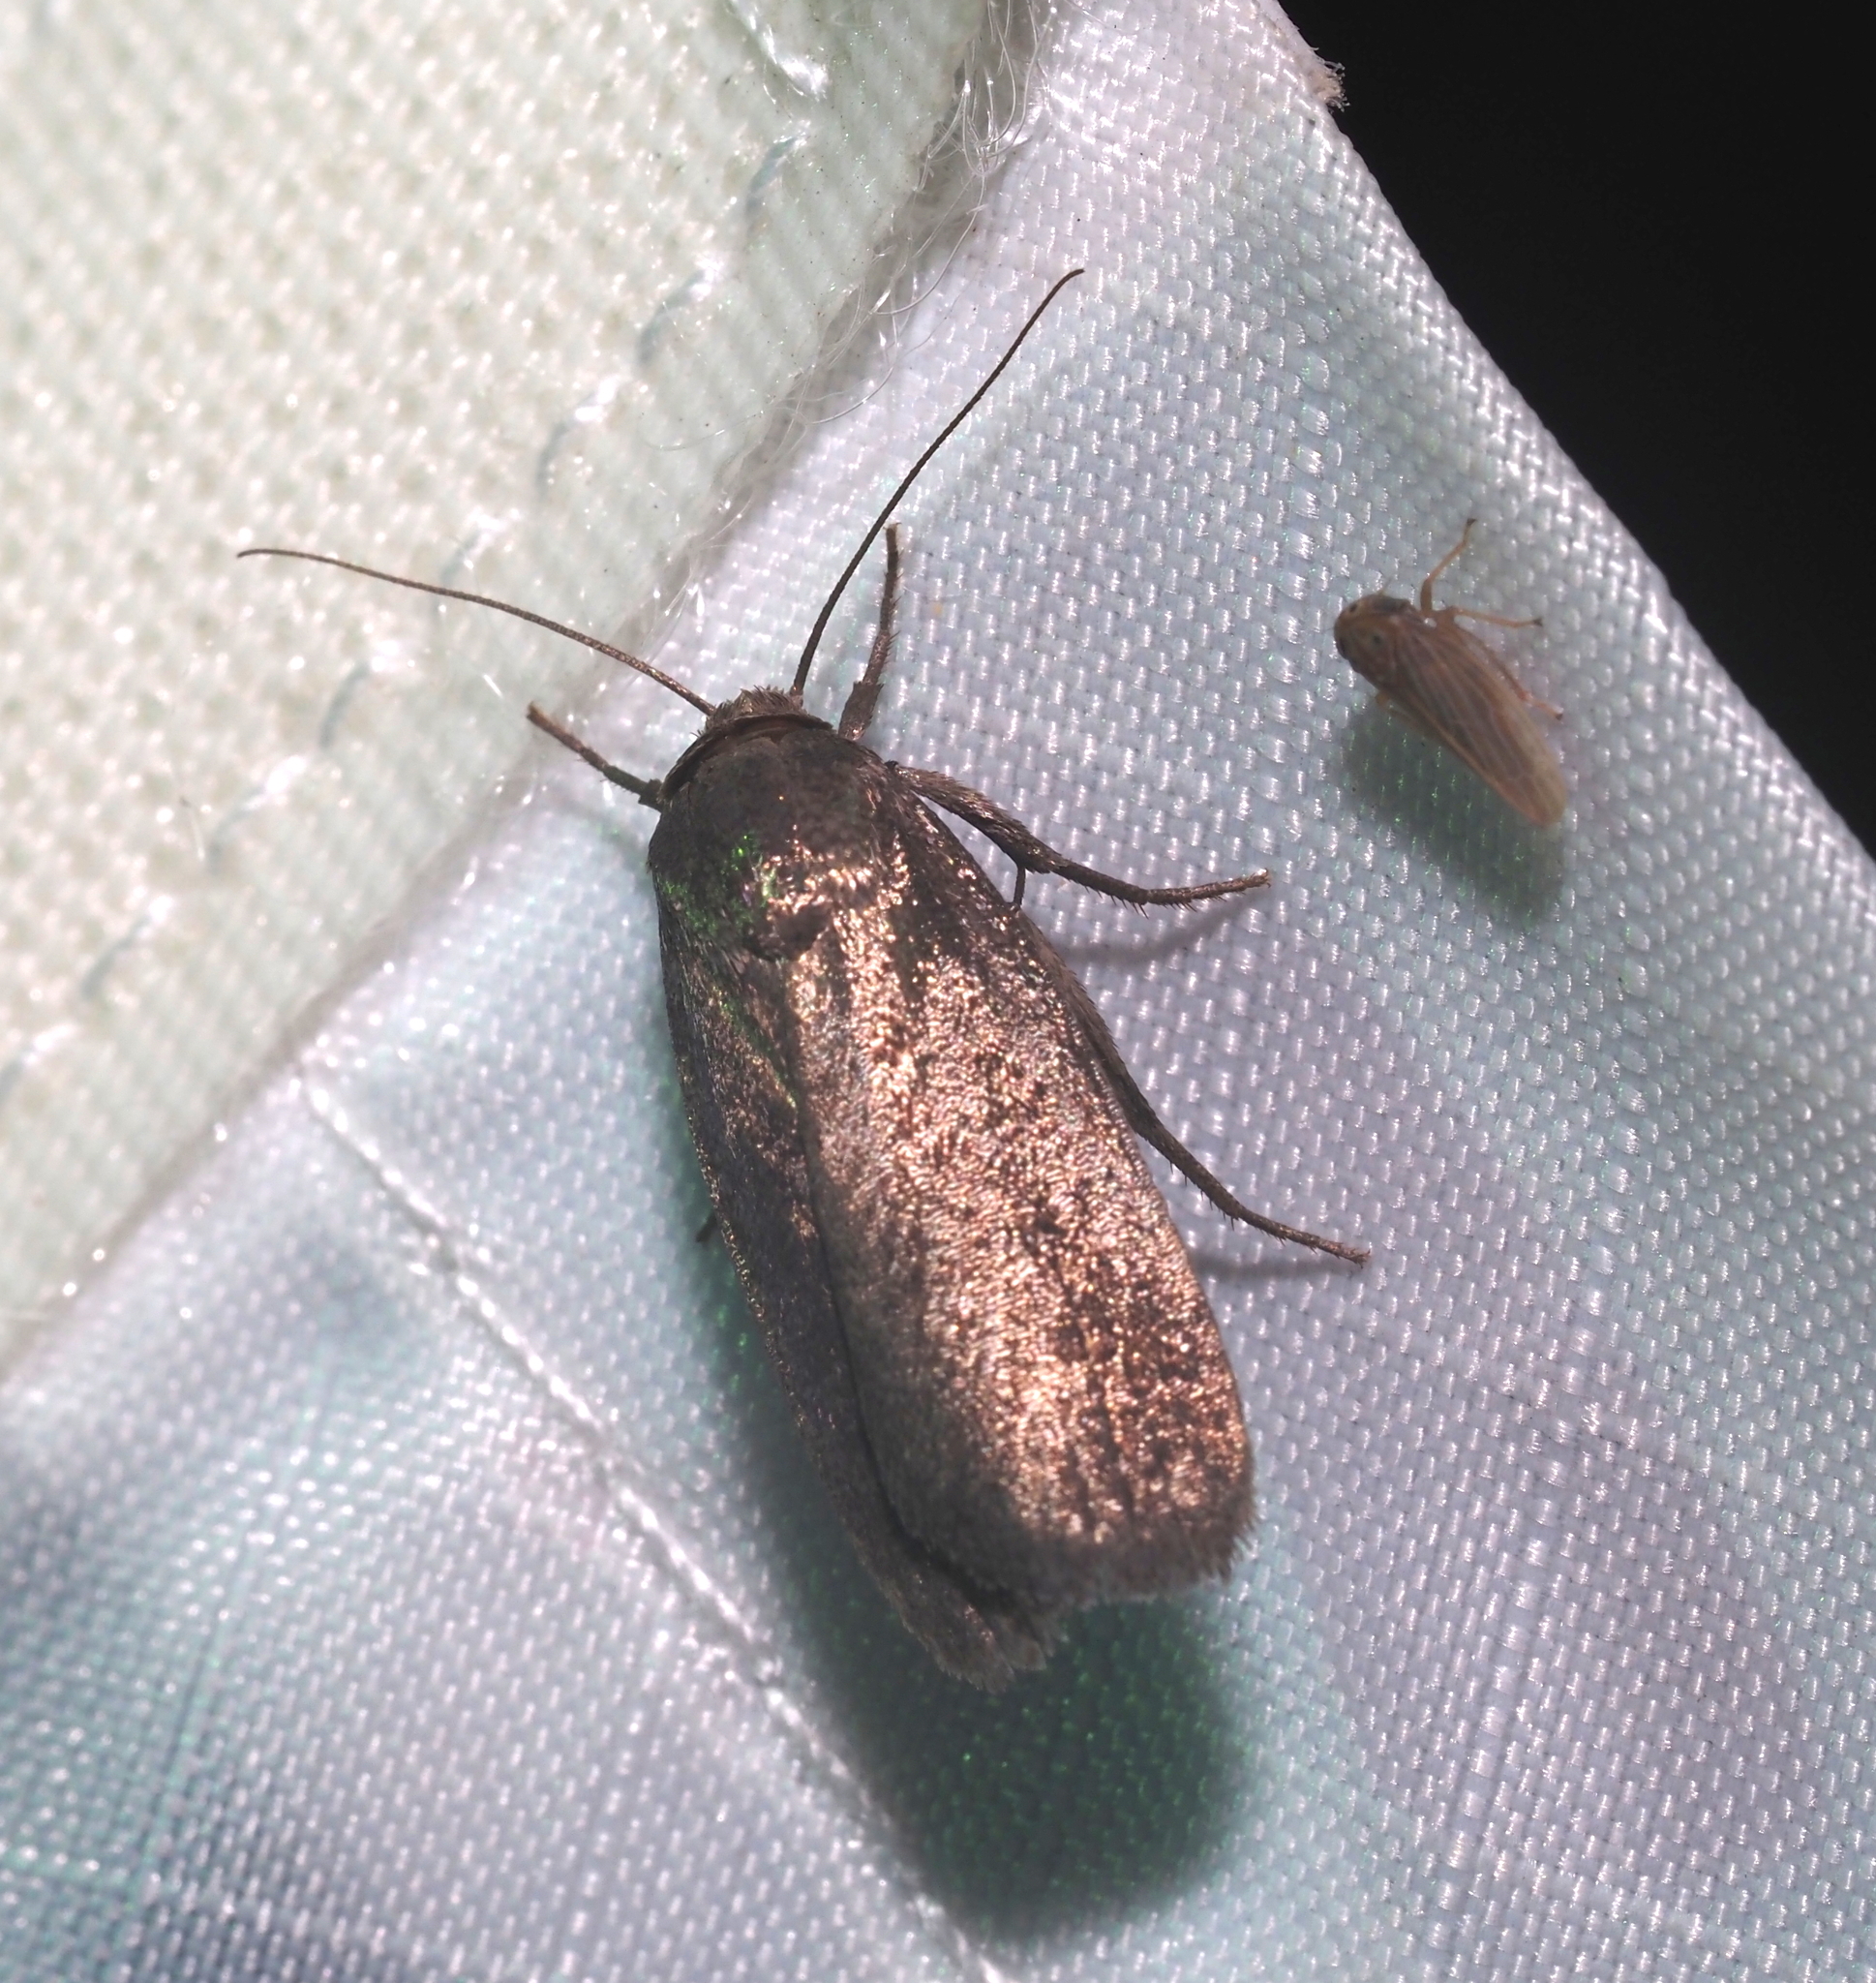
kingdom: Animalia
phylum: Arthropoda
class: Insecta
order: Lepidoptera
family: Noctuidae
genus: Proxenus
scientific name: Proxenus miranda
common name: Miranda moth
